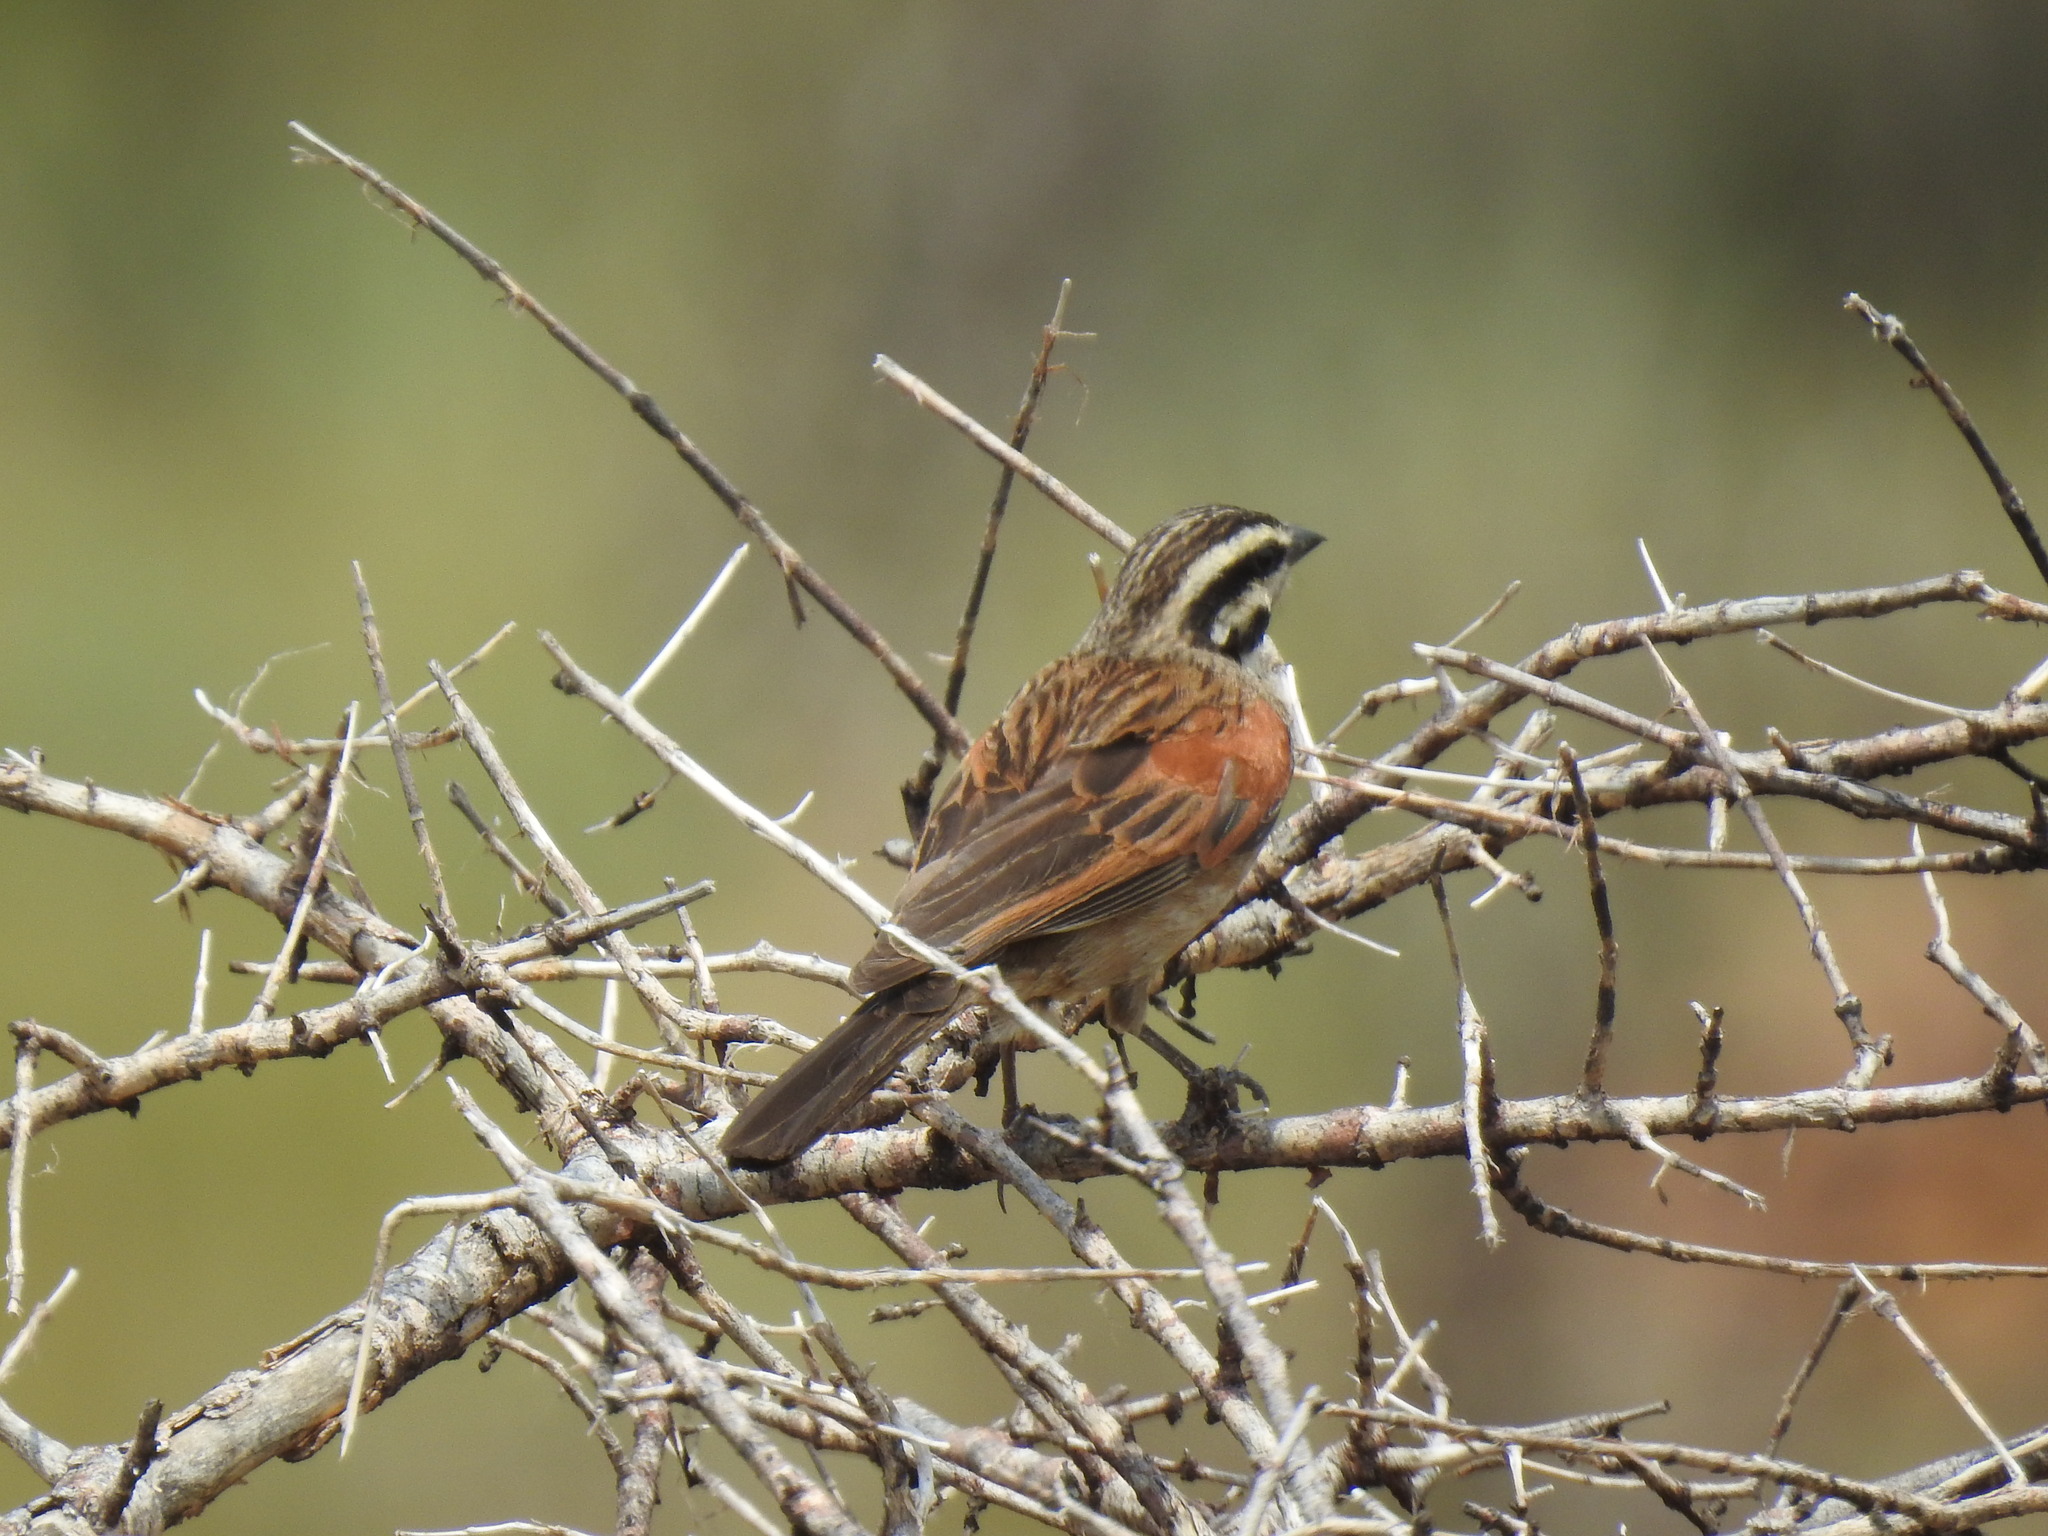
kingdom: Animalia
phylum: Chordata
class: Aves
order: Passeriformes
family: Emberizidae
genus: Emberiza
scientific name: Emberiza capensis
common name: Cape bunting
